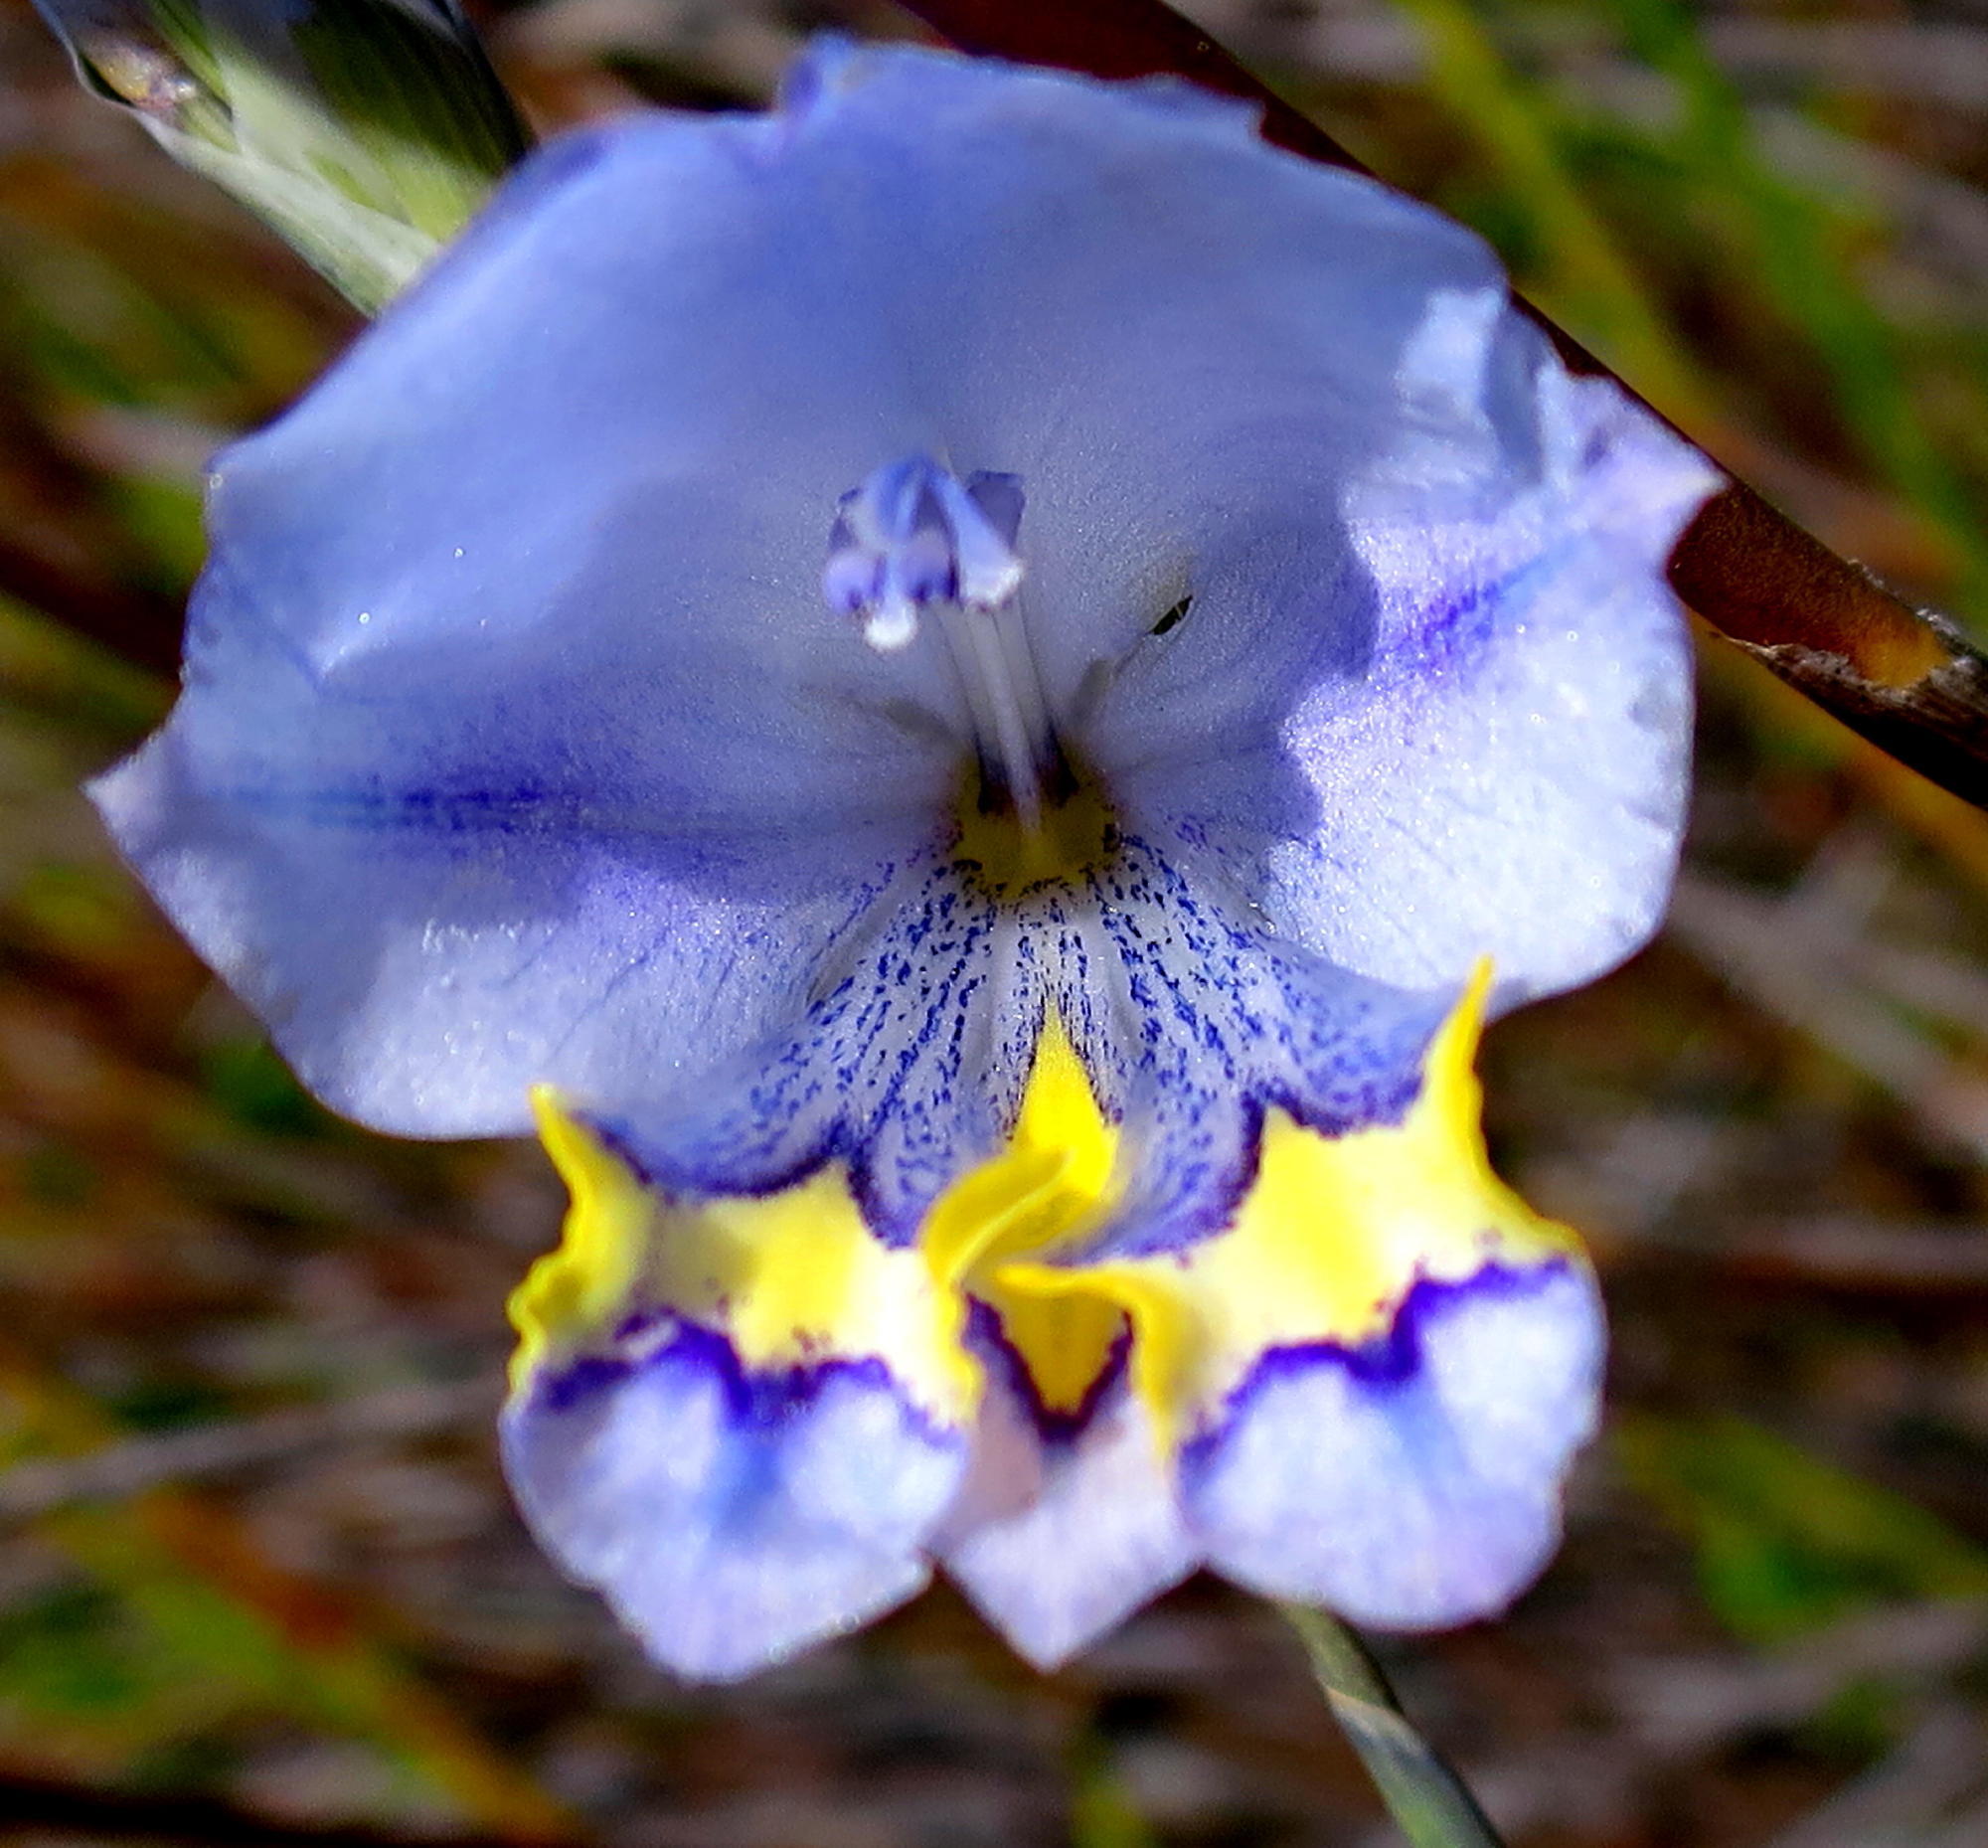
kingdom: Plantae
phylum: Tracheophyta
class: Liliopsida
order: Asparagales
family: Iridaceae
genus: Gladiolus
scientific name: Gladiolus rogersii
